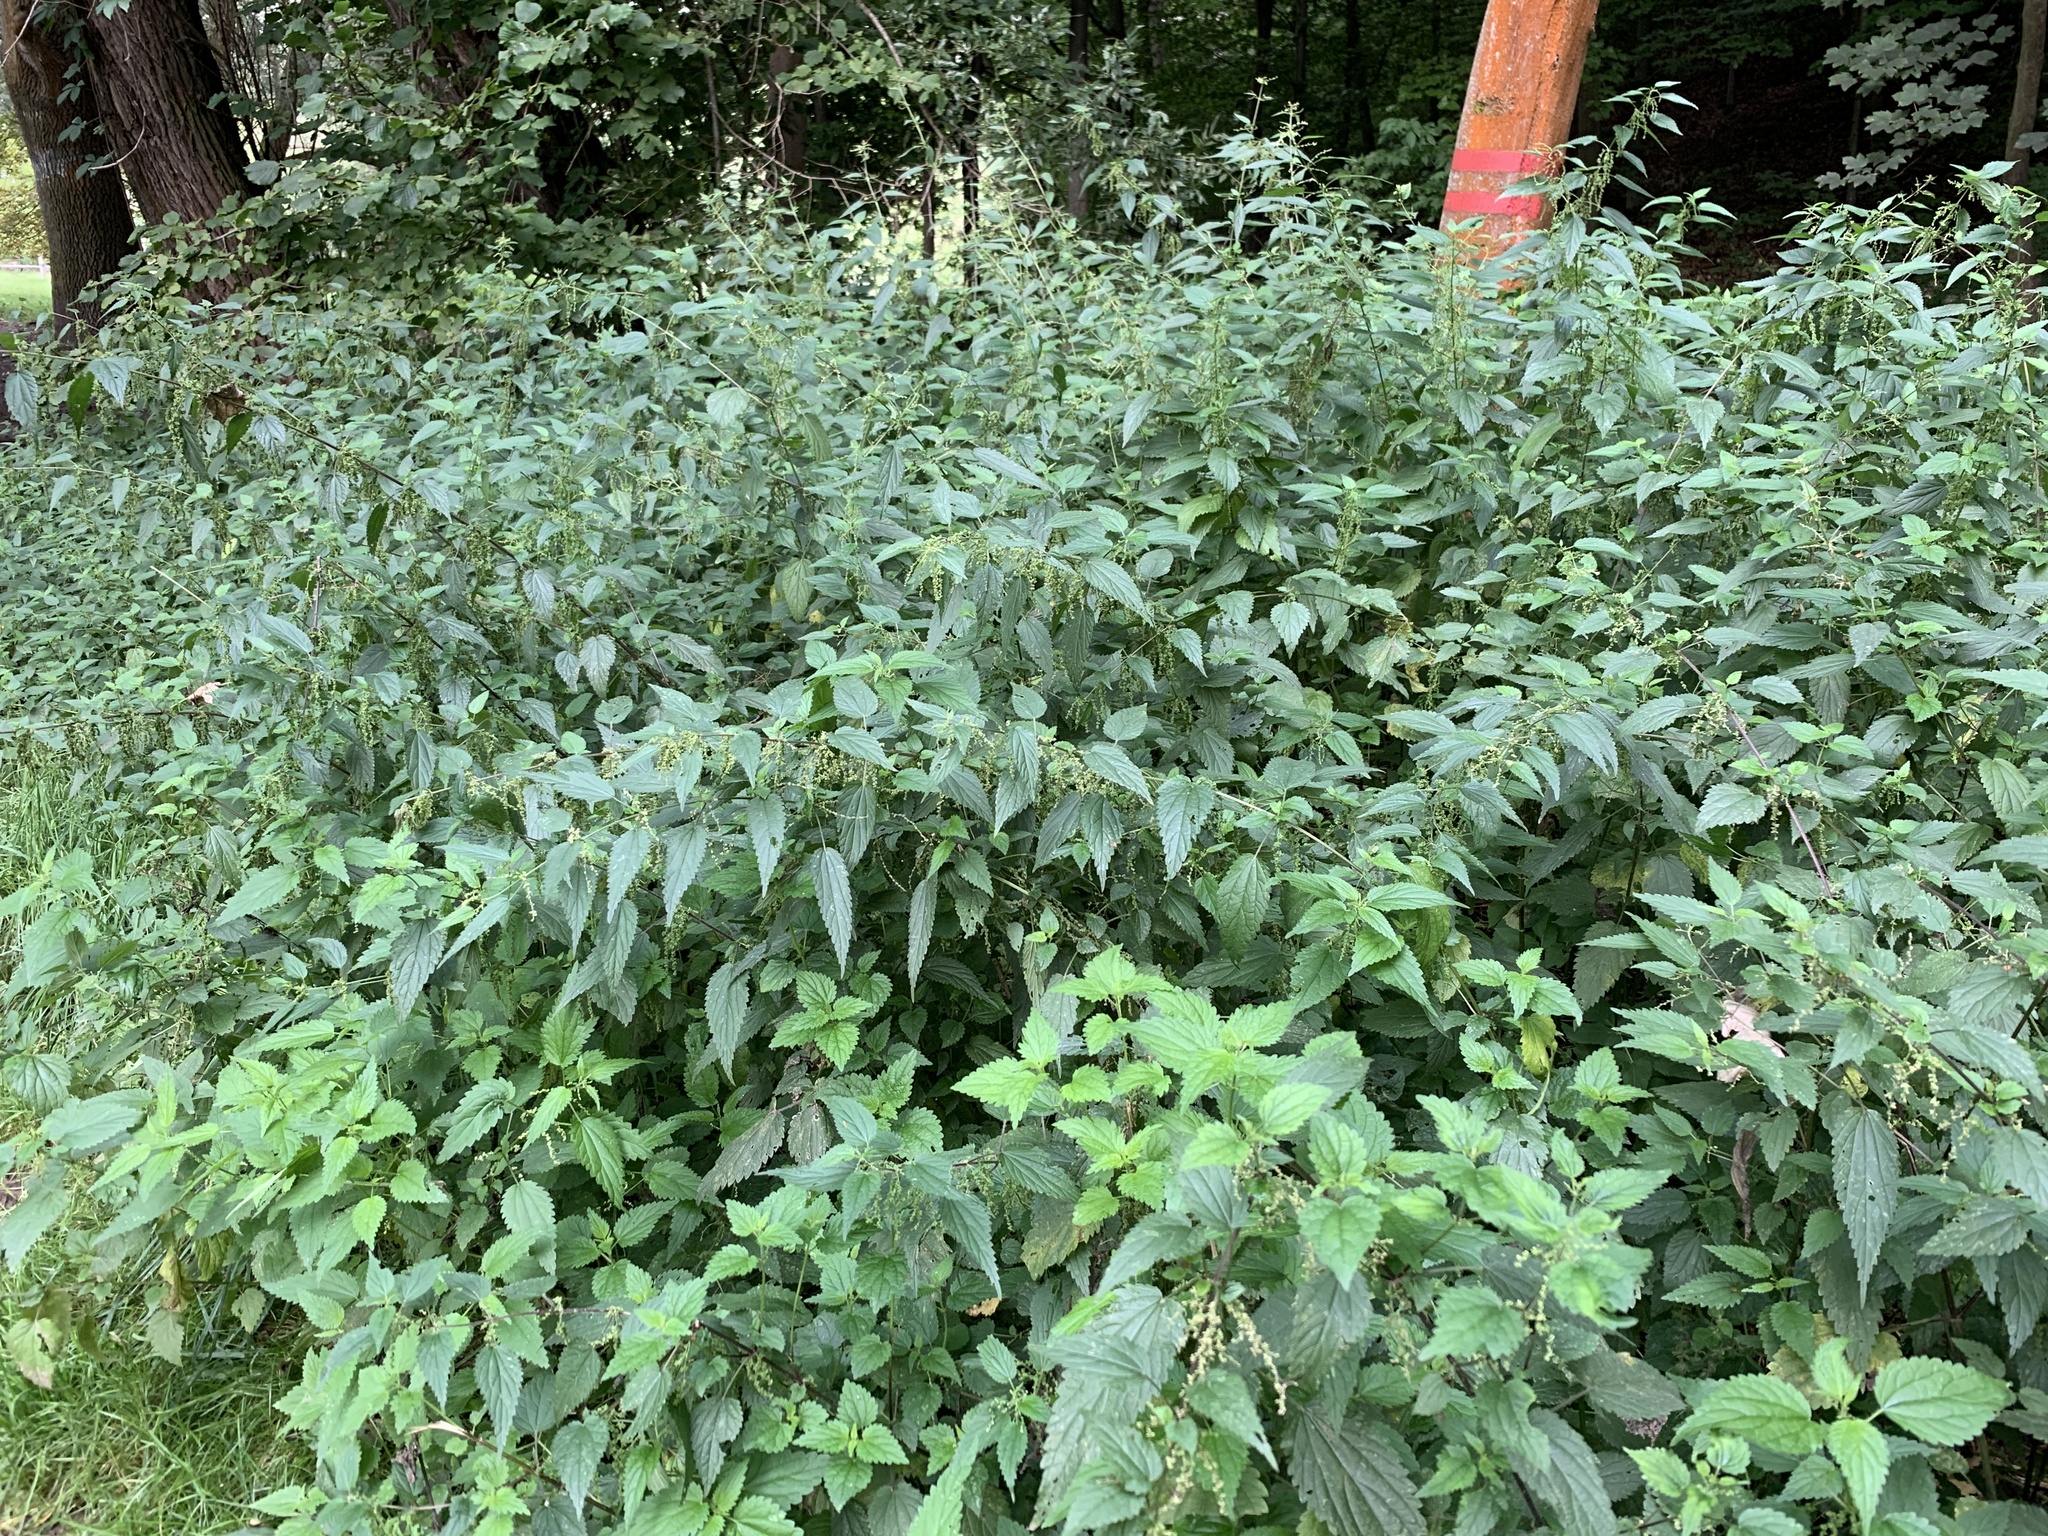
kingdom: Plantae
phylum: Tracheophyta
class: Magnoliopsida
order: Rosales
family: Urticaceae
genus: Urtica
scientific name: Urtica dioica
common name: Common nettle
